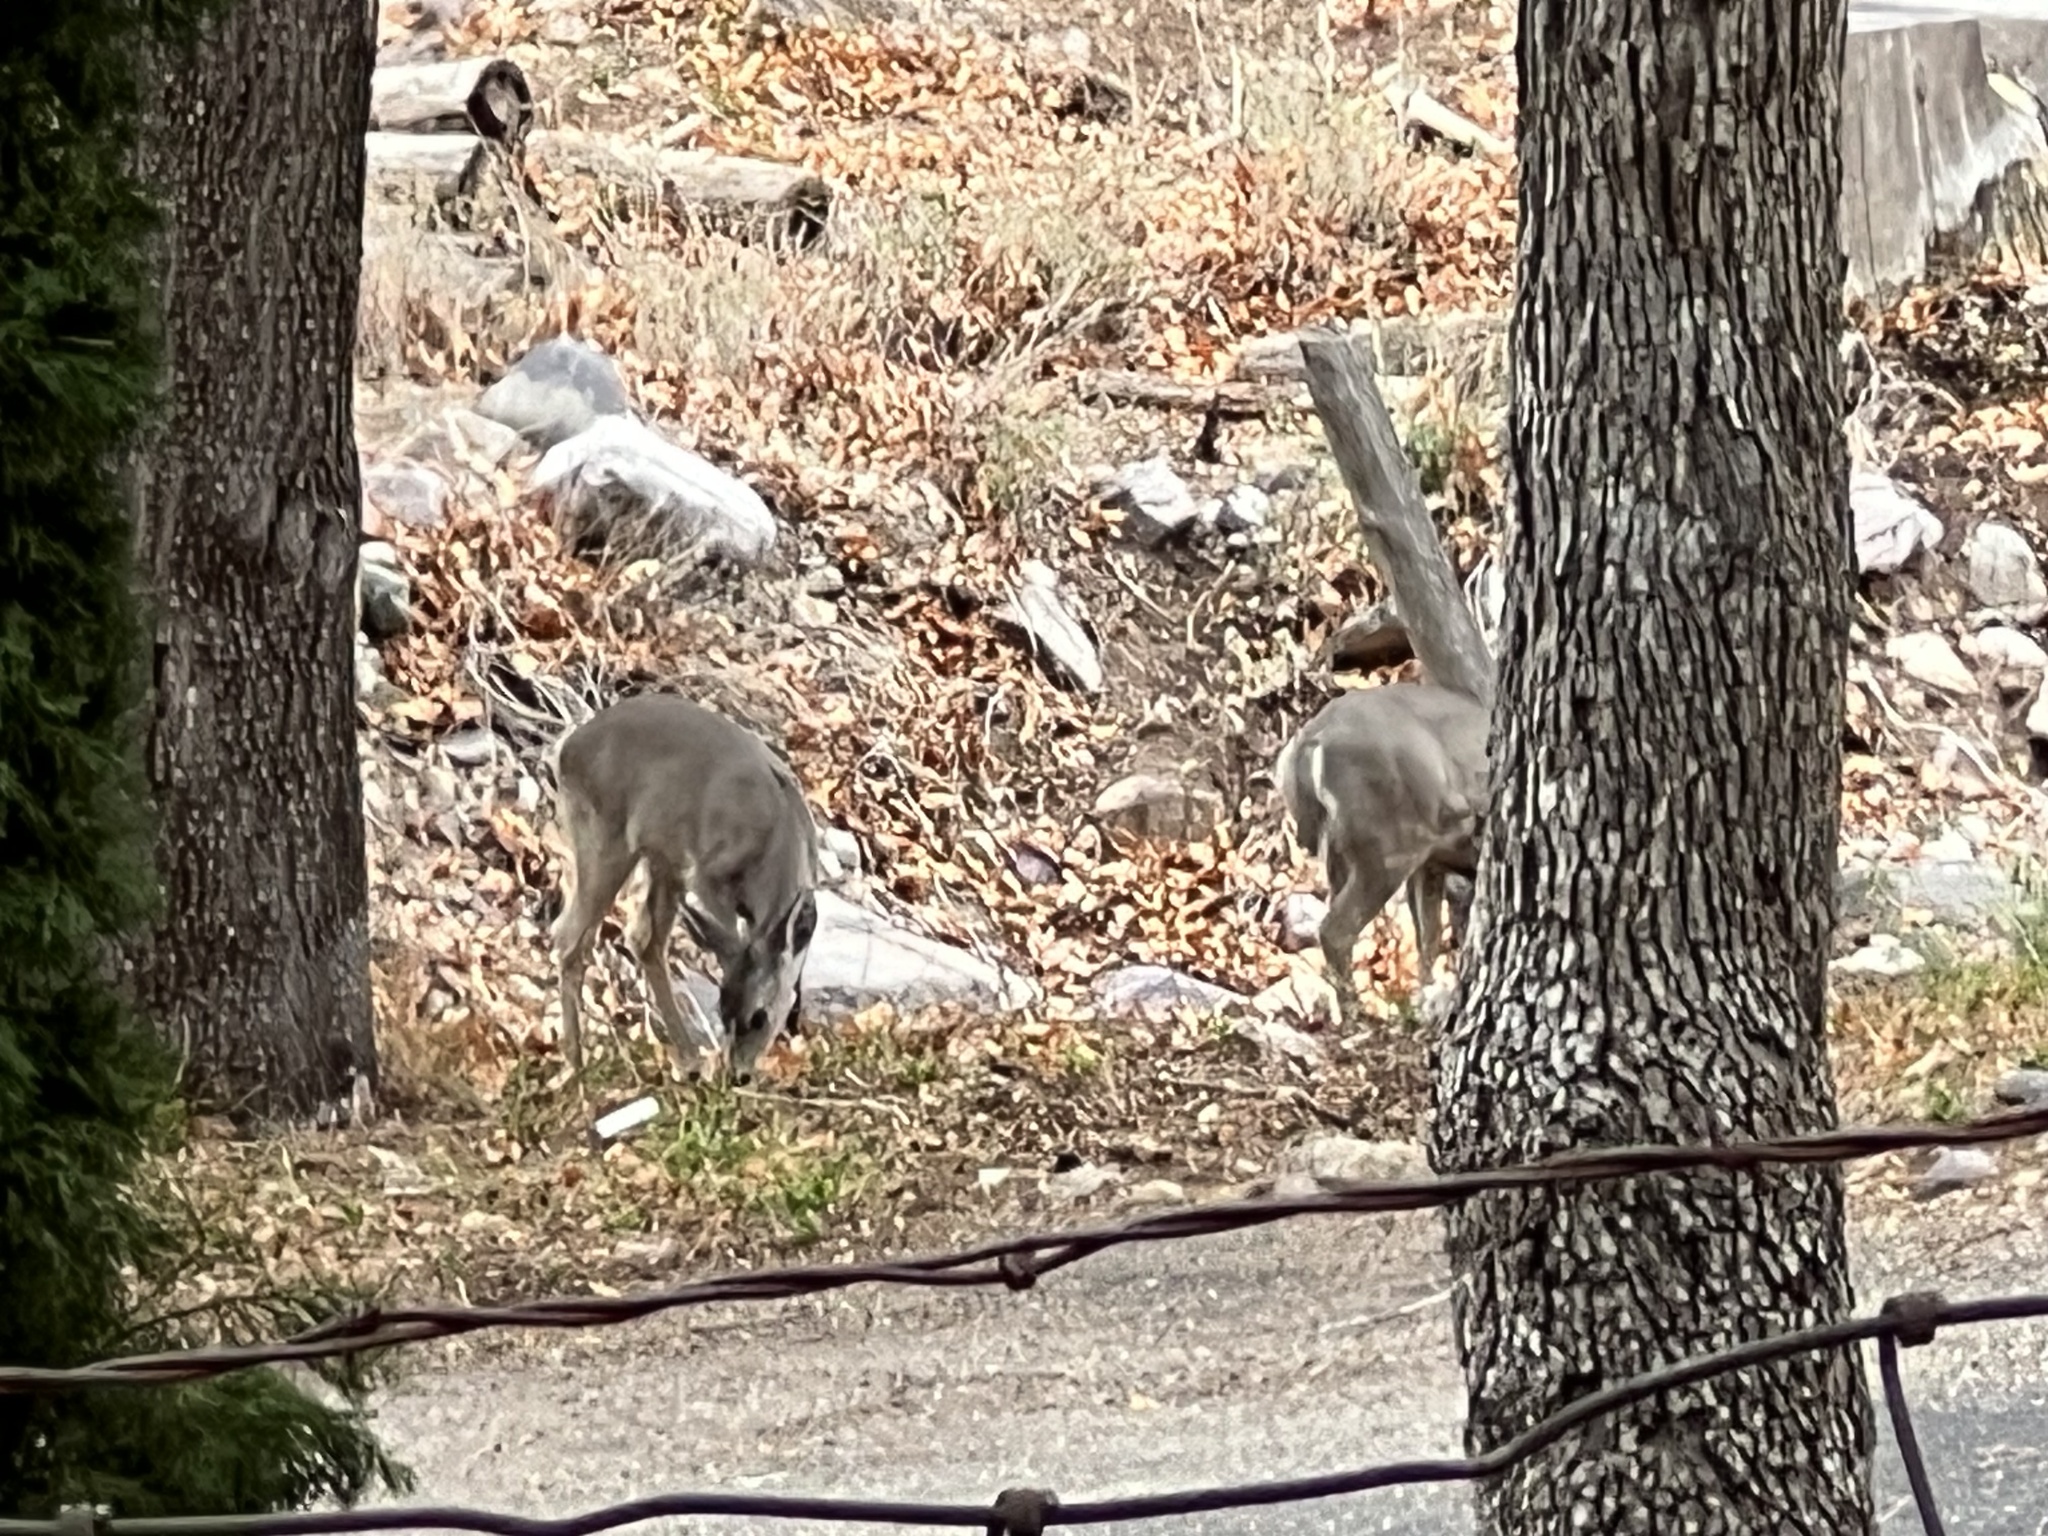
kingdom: Animalia
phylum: Chordata
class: Mammalia
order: Artiodactyla
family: Cervidae
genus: Odocoileus
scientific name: Odocoileus virginianus
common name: White-tailed deer
